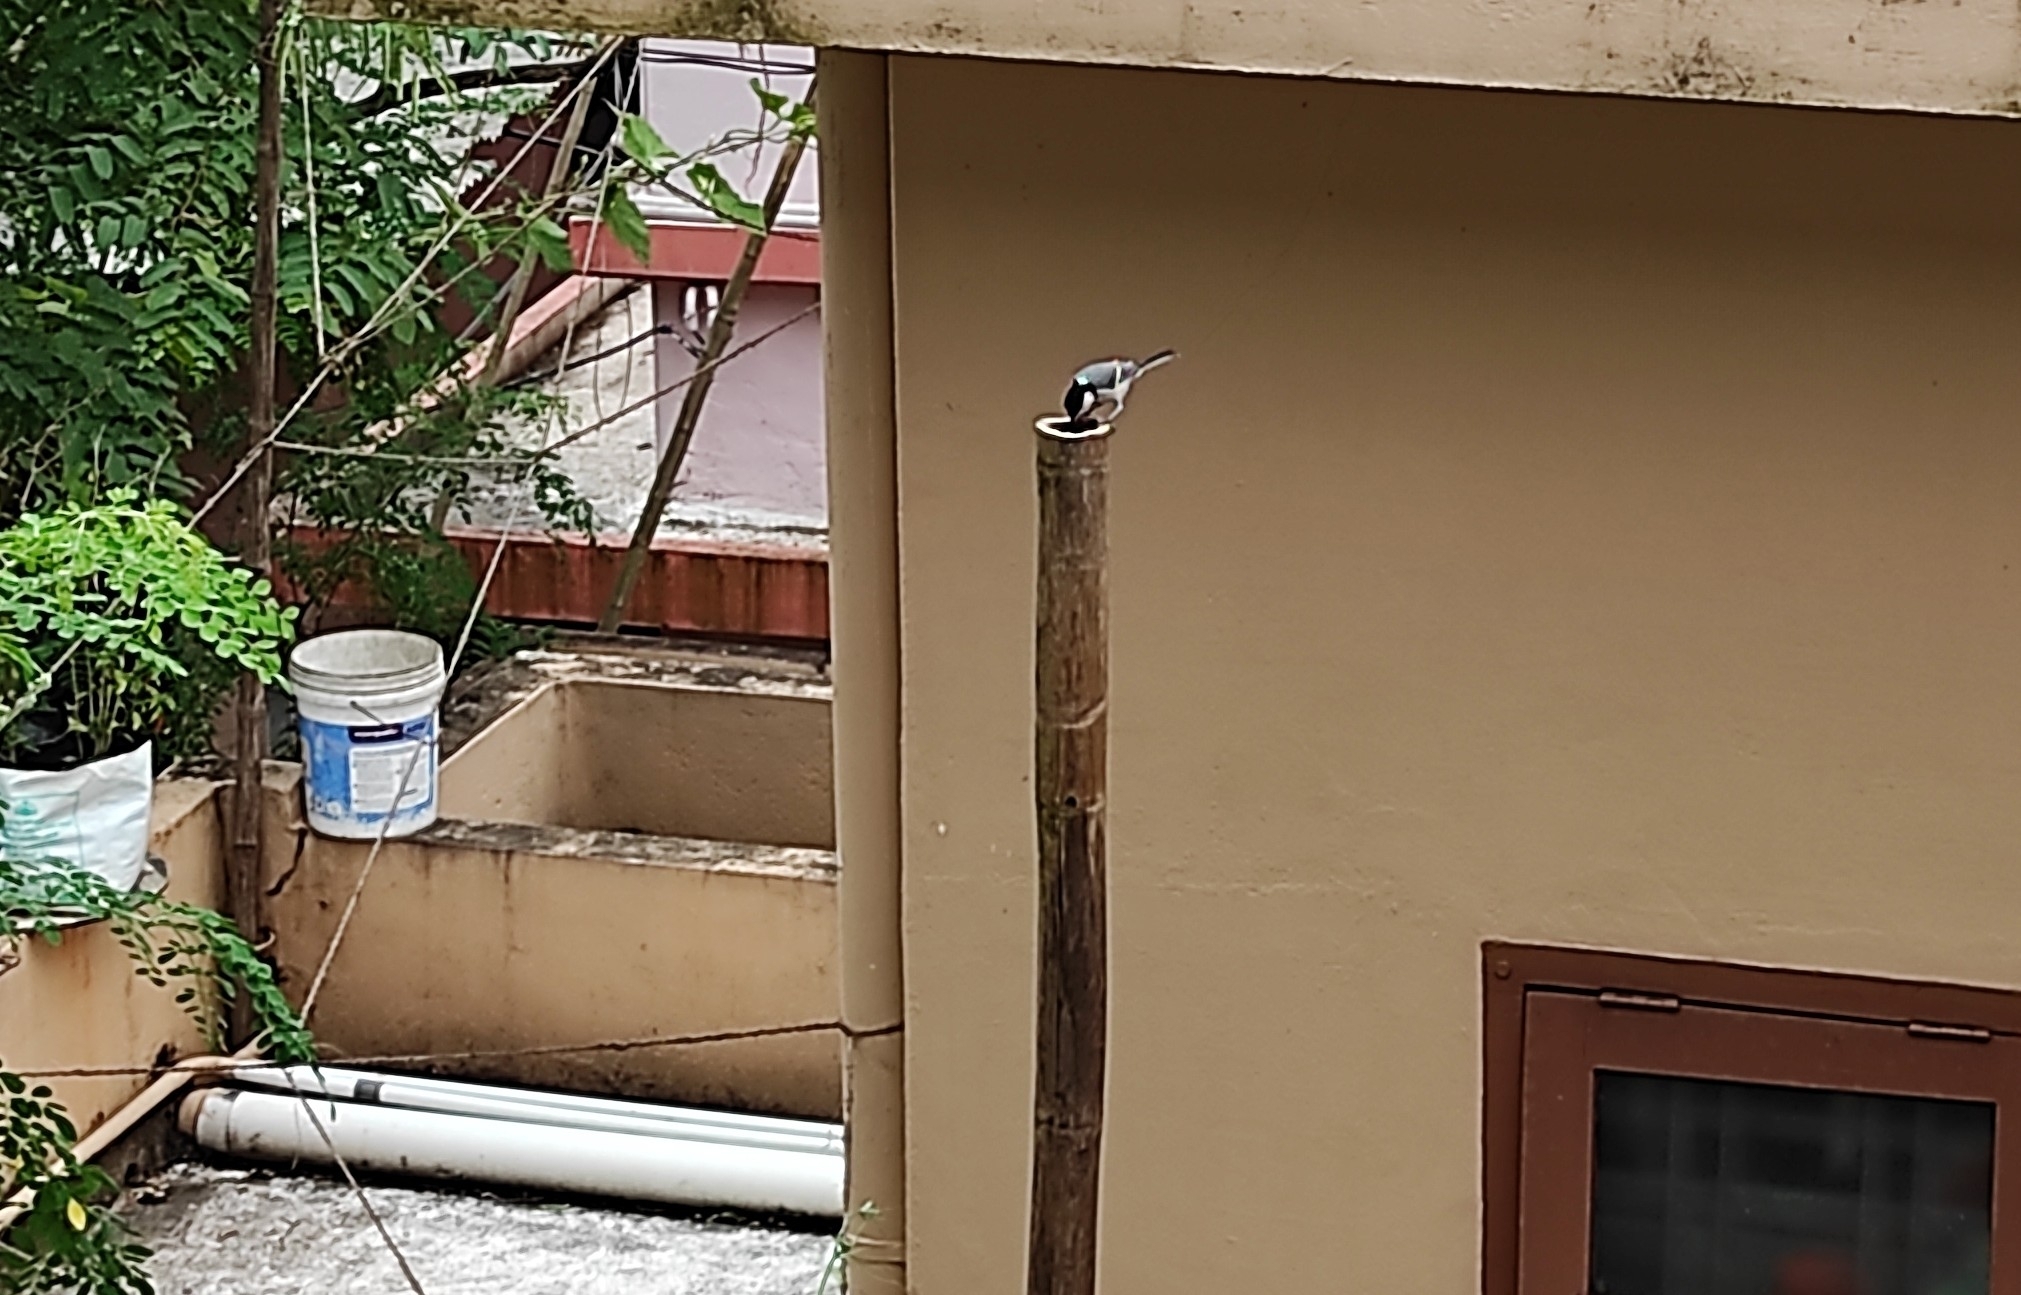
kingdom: Animalia
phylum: Chordata
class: Aves
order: Passeriformes
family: Paridae
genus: Parus
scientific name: Parus cinereus
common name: Cinereous tit
